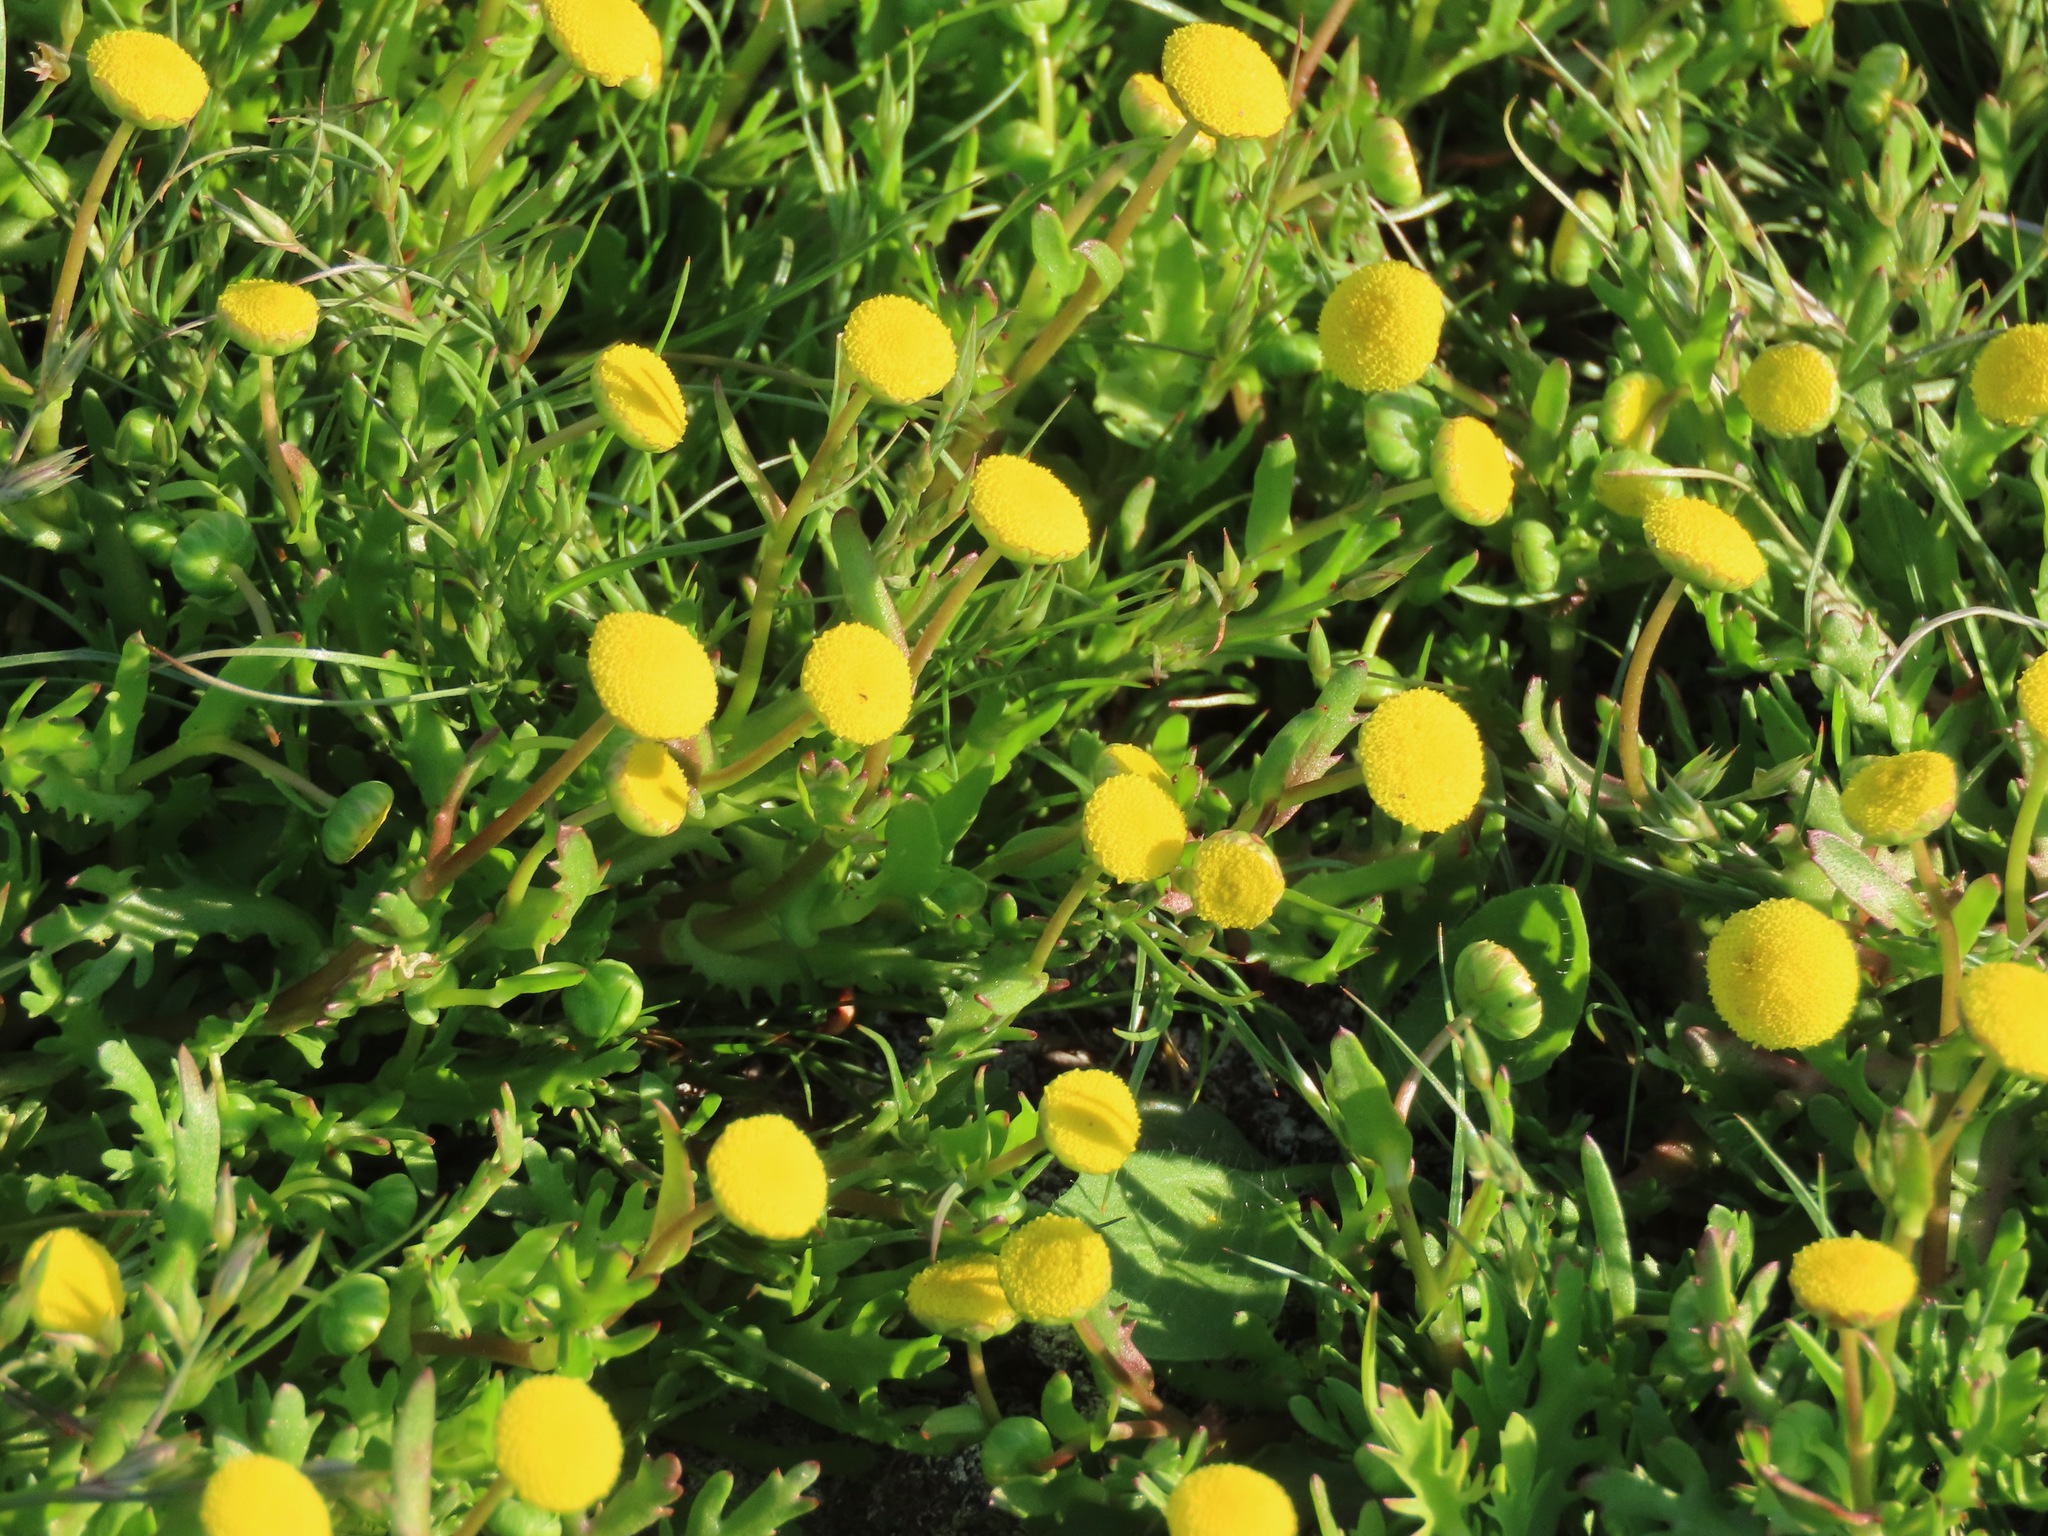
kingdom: Plantae
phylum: Tracheophyta
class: Magnoliopsida
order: Asterales
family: Asteraceae
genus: Cotula
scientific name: Cotula coronopifolia
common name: Buttonweed
